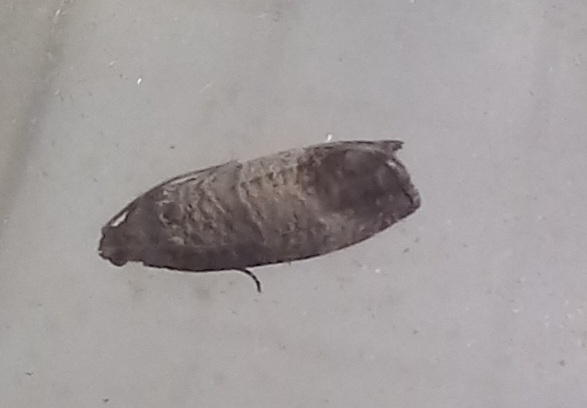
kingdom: Animalia
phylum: Arthropoda
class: Insecta
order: Lepidoptera
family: Tortricidae
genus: Cydia
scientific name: Cydia pomonella
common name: Codling moth
